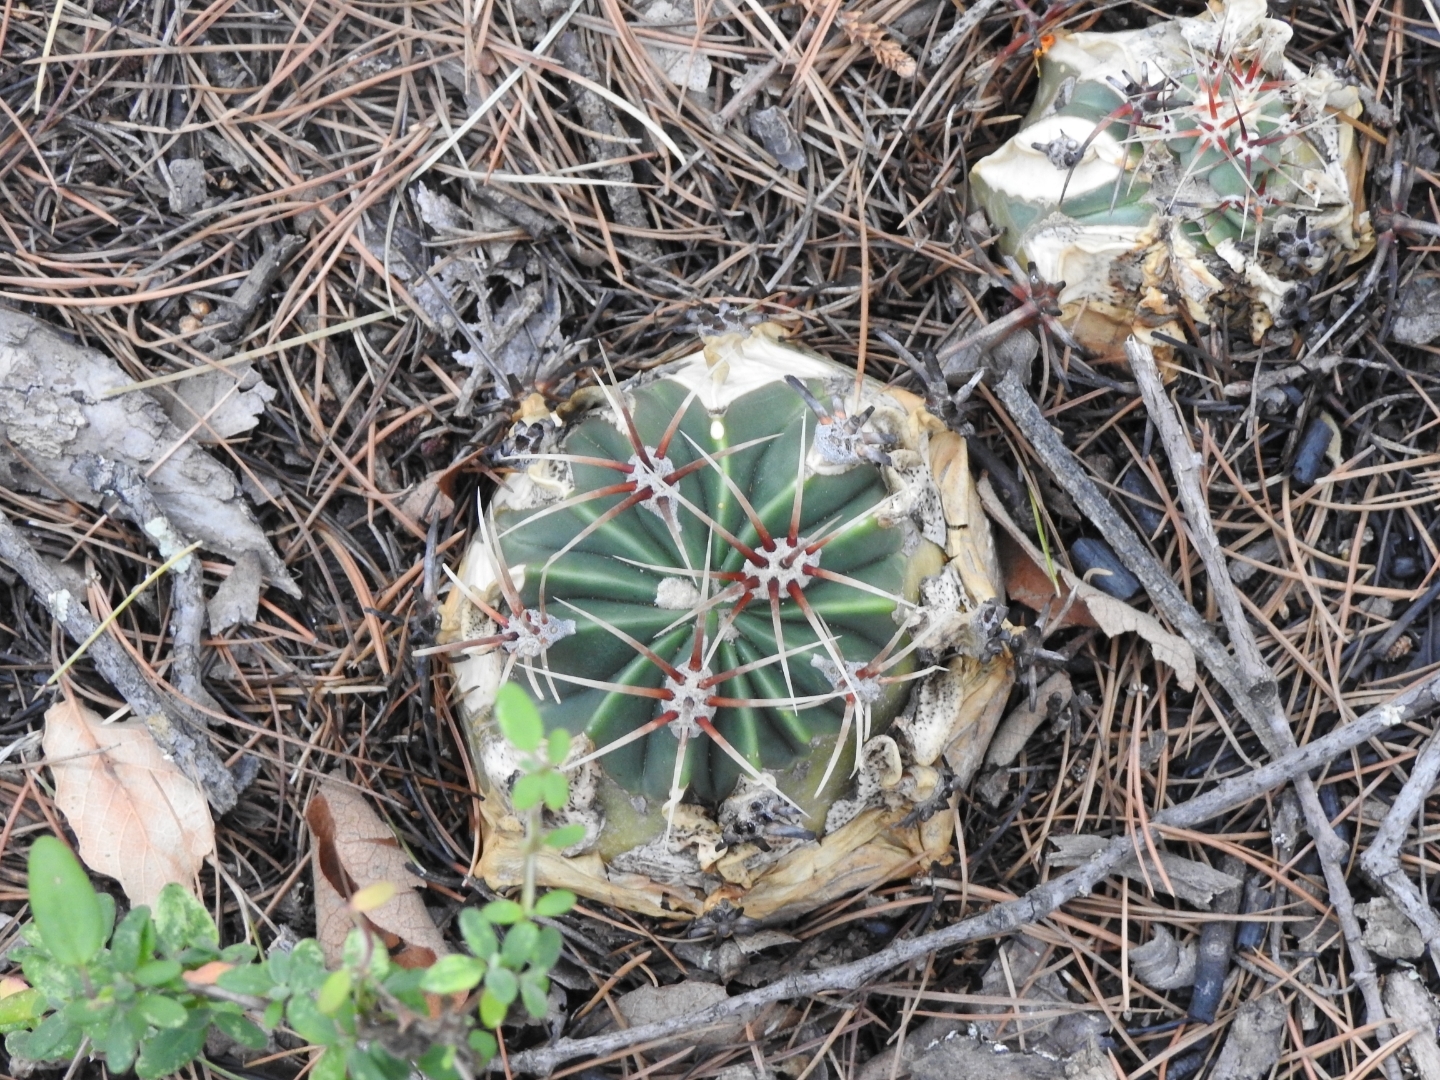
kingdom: Plantae
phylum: Tracheophyta
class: Magnoliopsida
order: Caryophyllales
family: Cactaceae
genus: Bisnaga
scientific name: Bisnaga histrix
